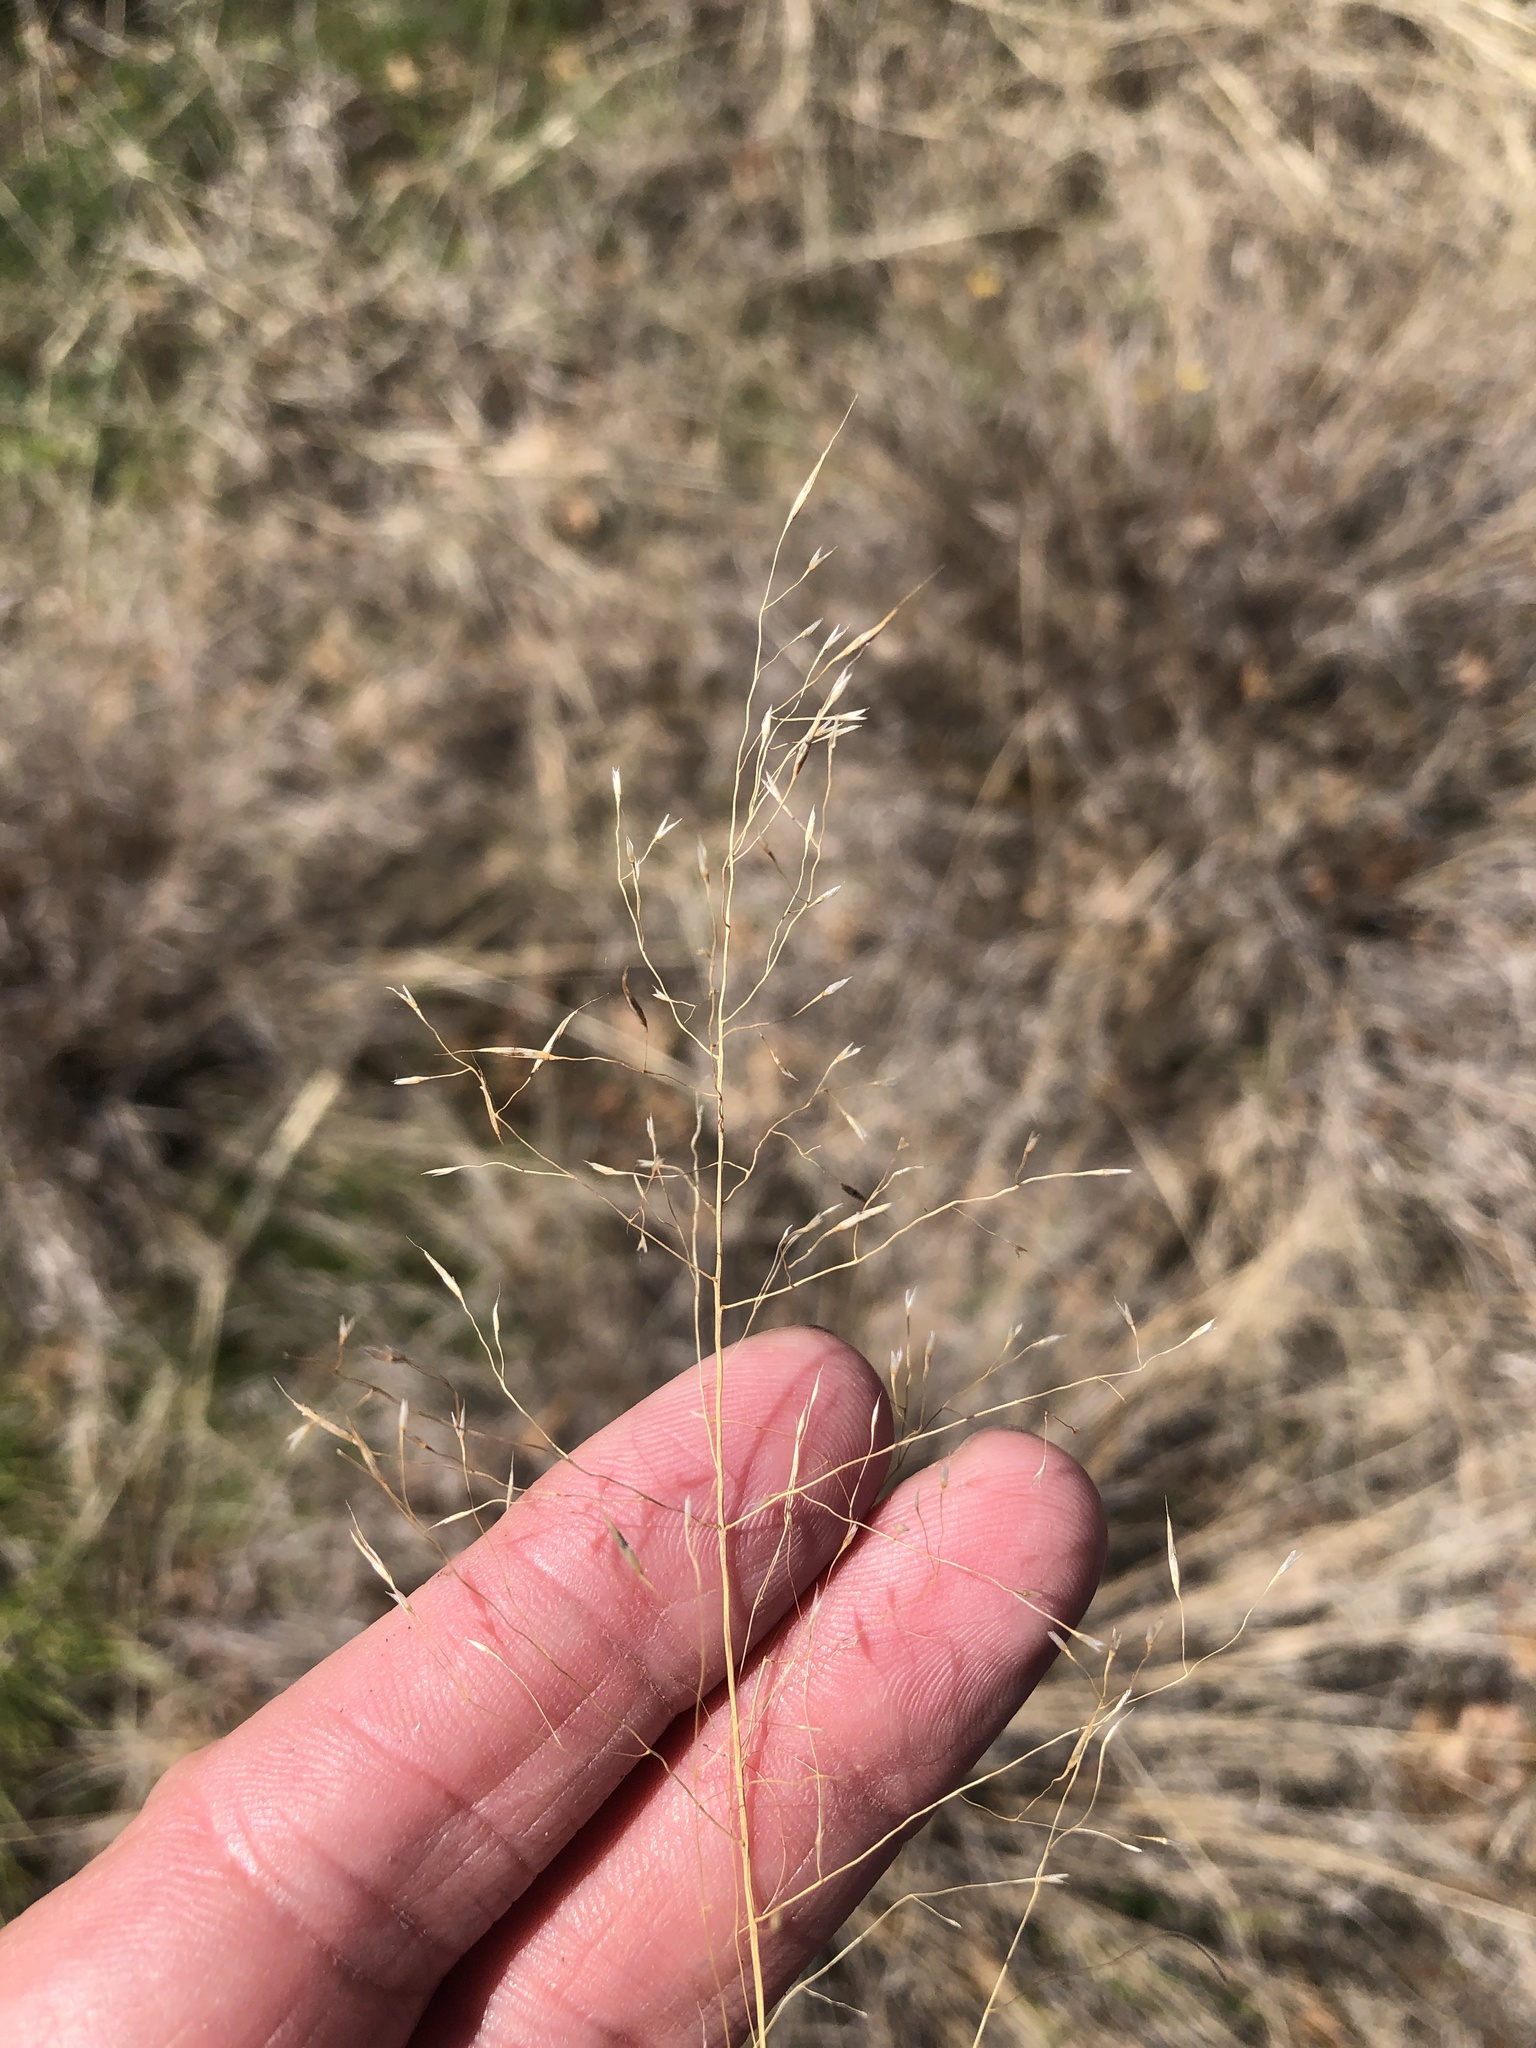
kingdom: Plantae
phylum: Tracheophyta
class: Liliopsida
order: Poales
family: Poaceae
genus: Muhlenbergia
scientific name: Muhlenbergia reverchonii
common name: Seep muhly
